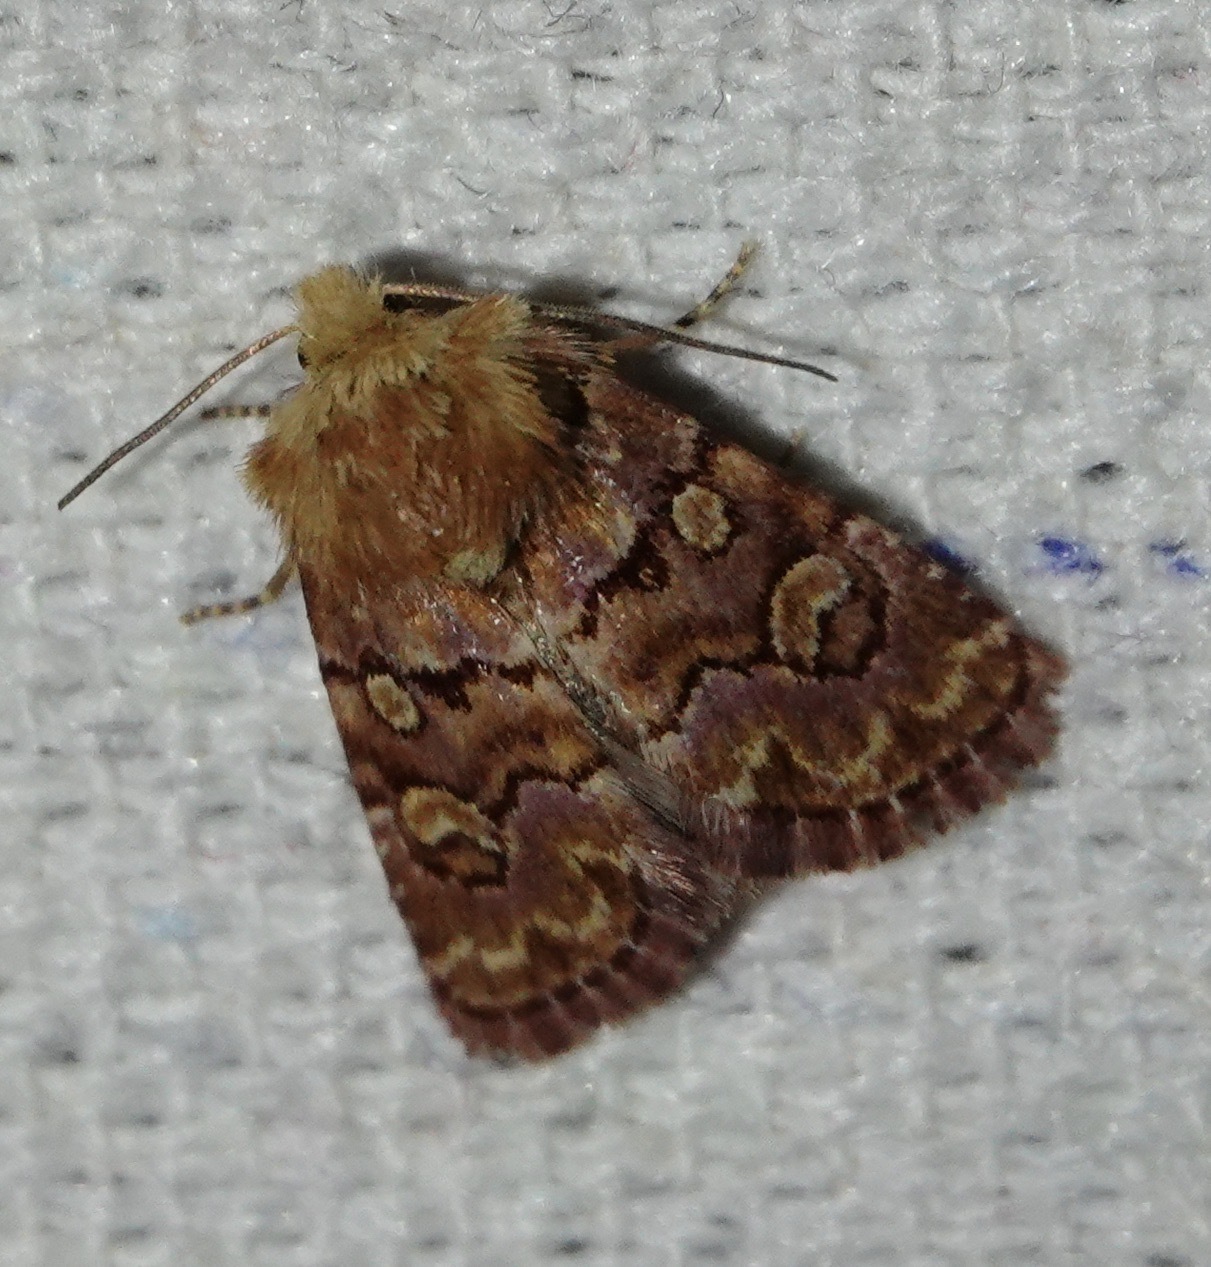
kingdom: Animalia
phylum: Arthropoda
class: Insecta
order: Lepidoptera
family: Noctuidae
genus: Euros
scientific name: Euros proprius
